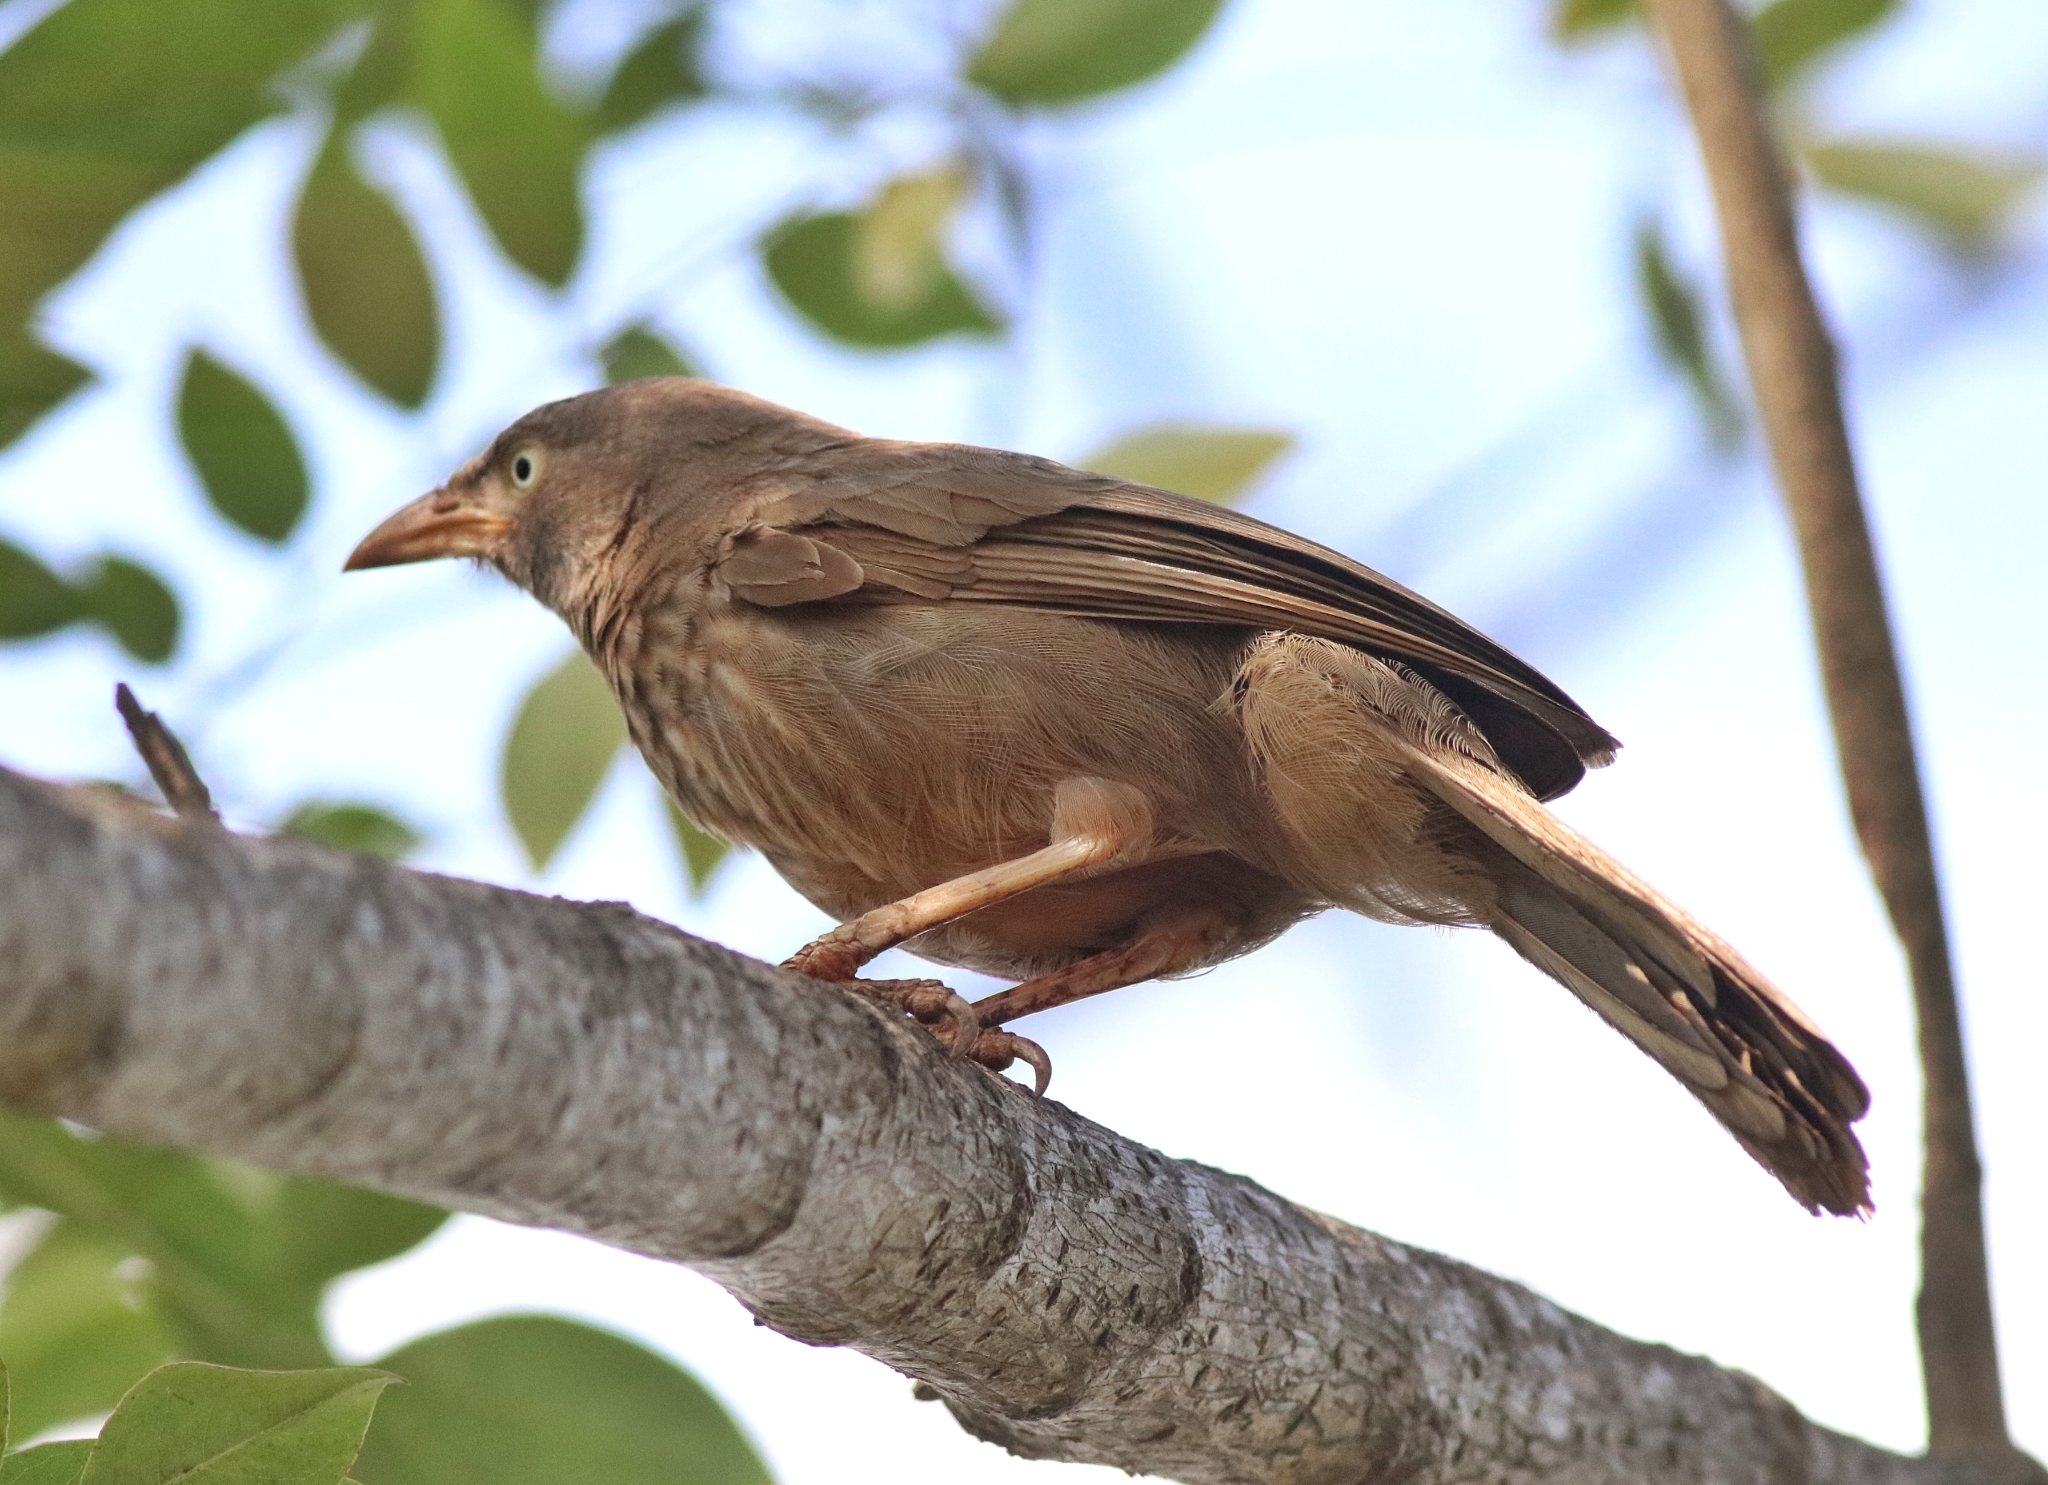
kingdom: Animalia
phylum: Chordata
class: Aves
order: Passeriformes
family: Leiothrichidae
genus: Turdoides
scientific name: Turdoides striata
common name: Jungle babbler
